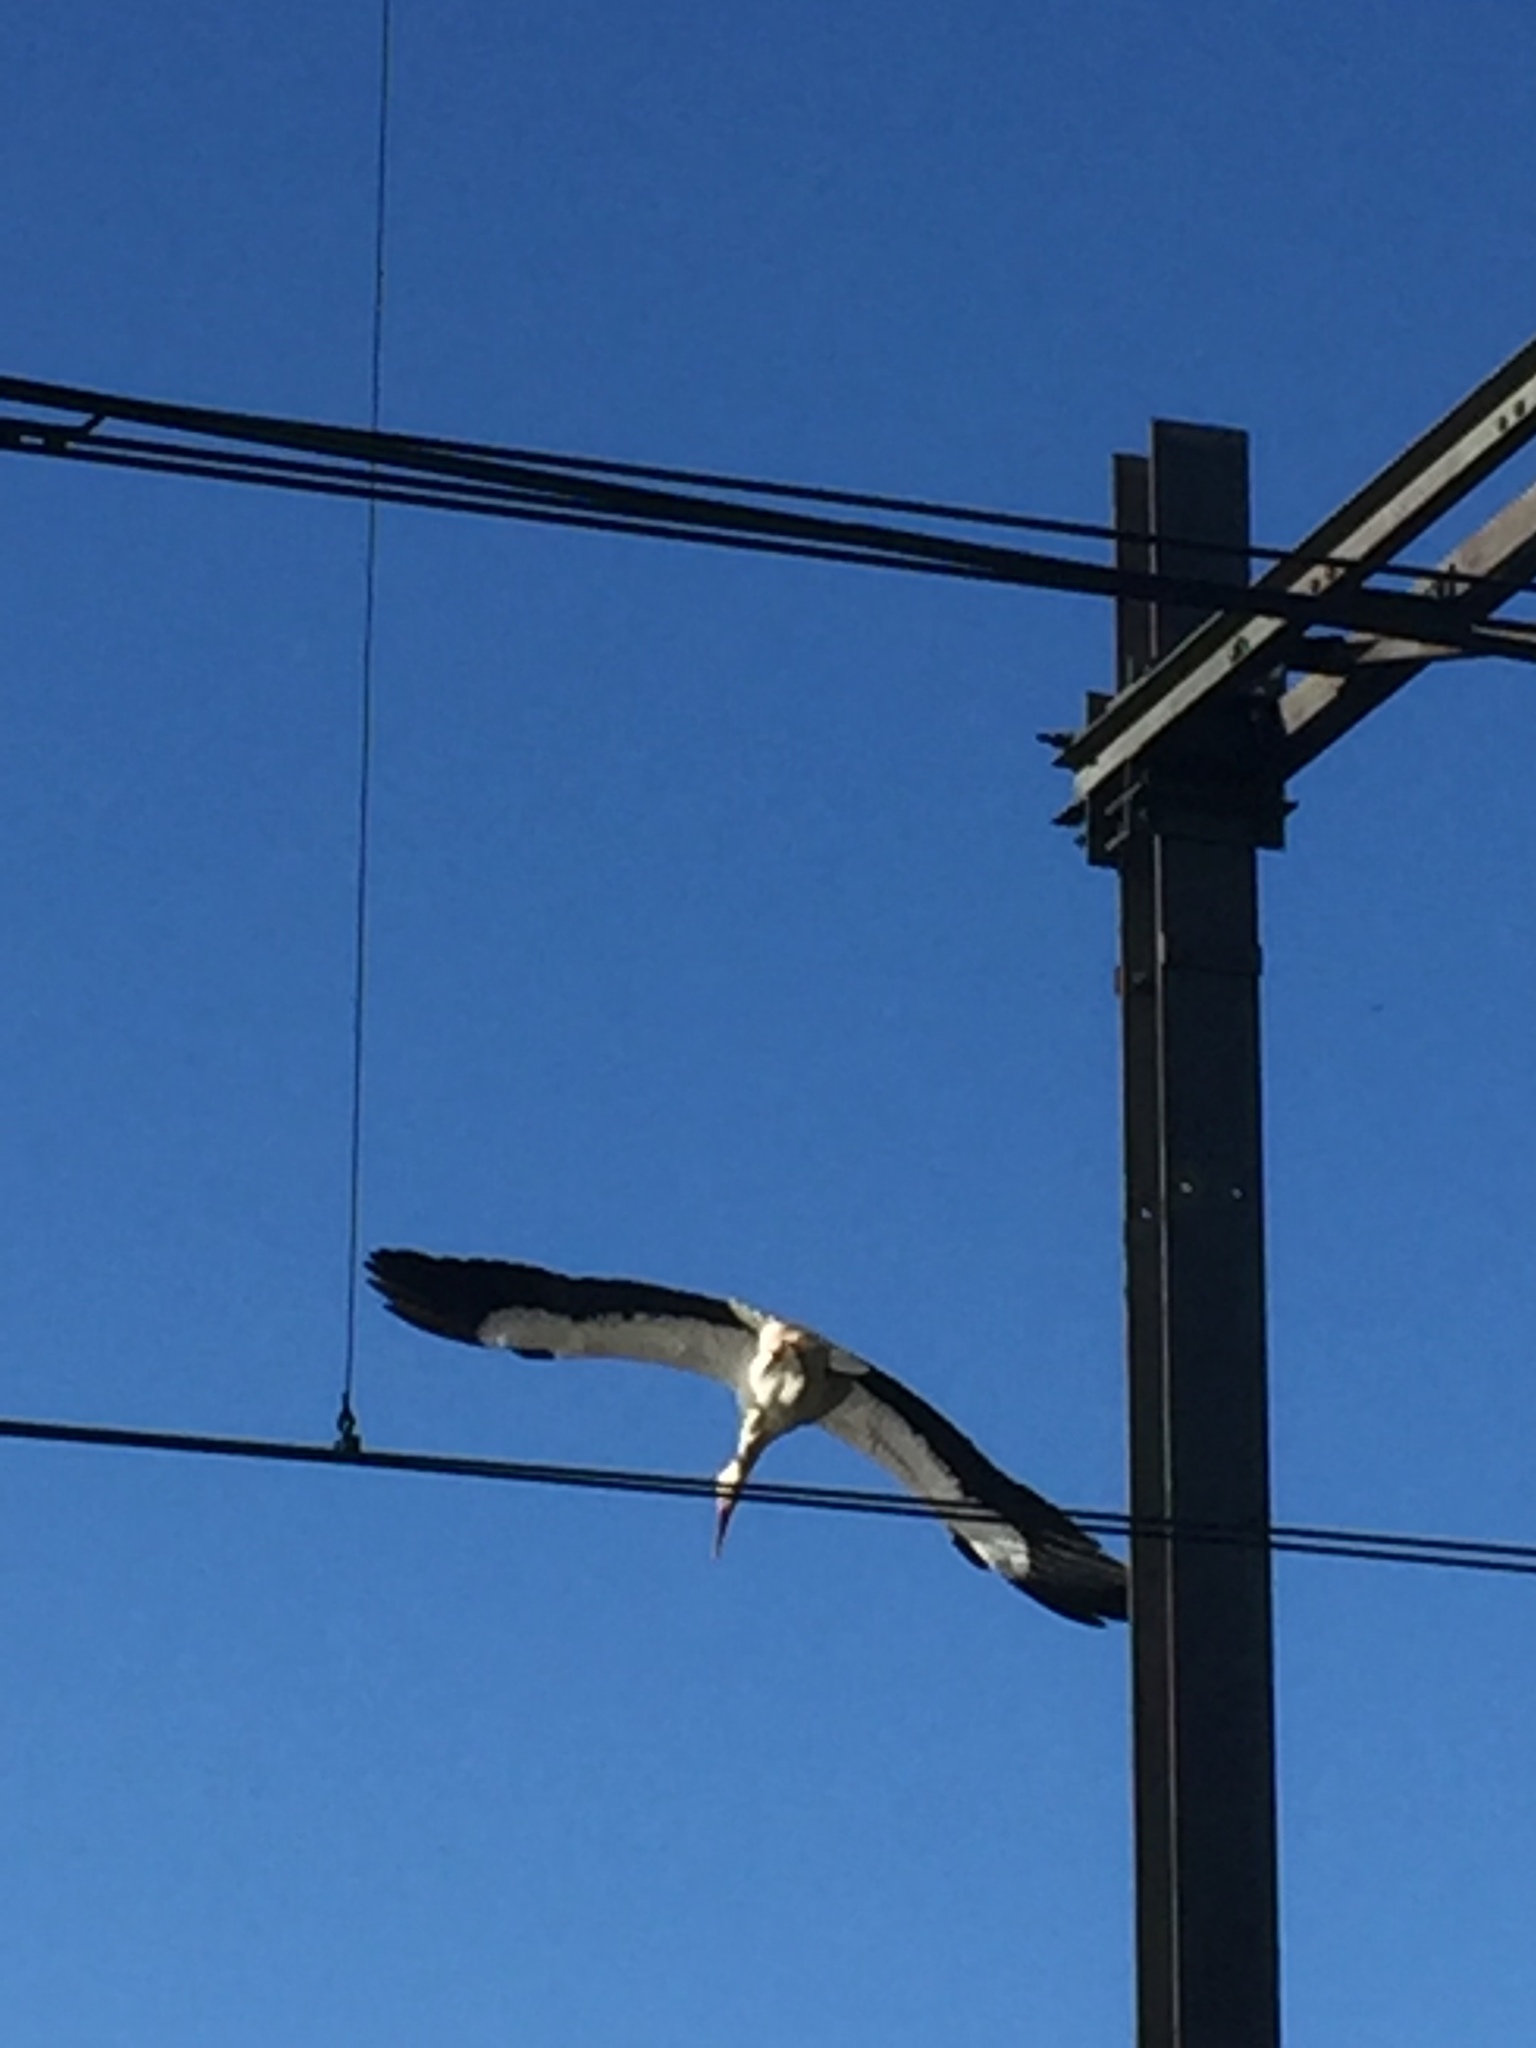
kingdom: Animalia
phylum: Chordata
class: Aves
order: Ciconiiformes
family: Ciconiidae
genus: Ciconia
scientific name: Ciconia ciconia
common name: White stork
